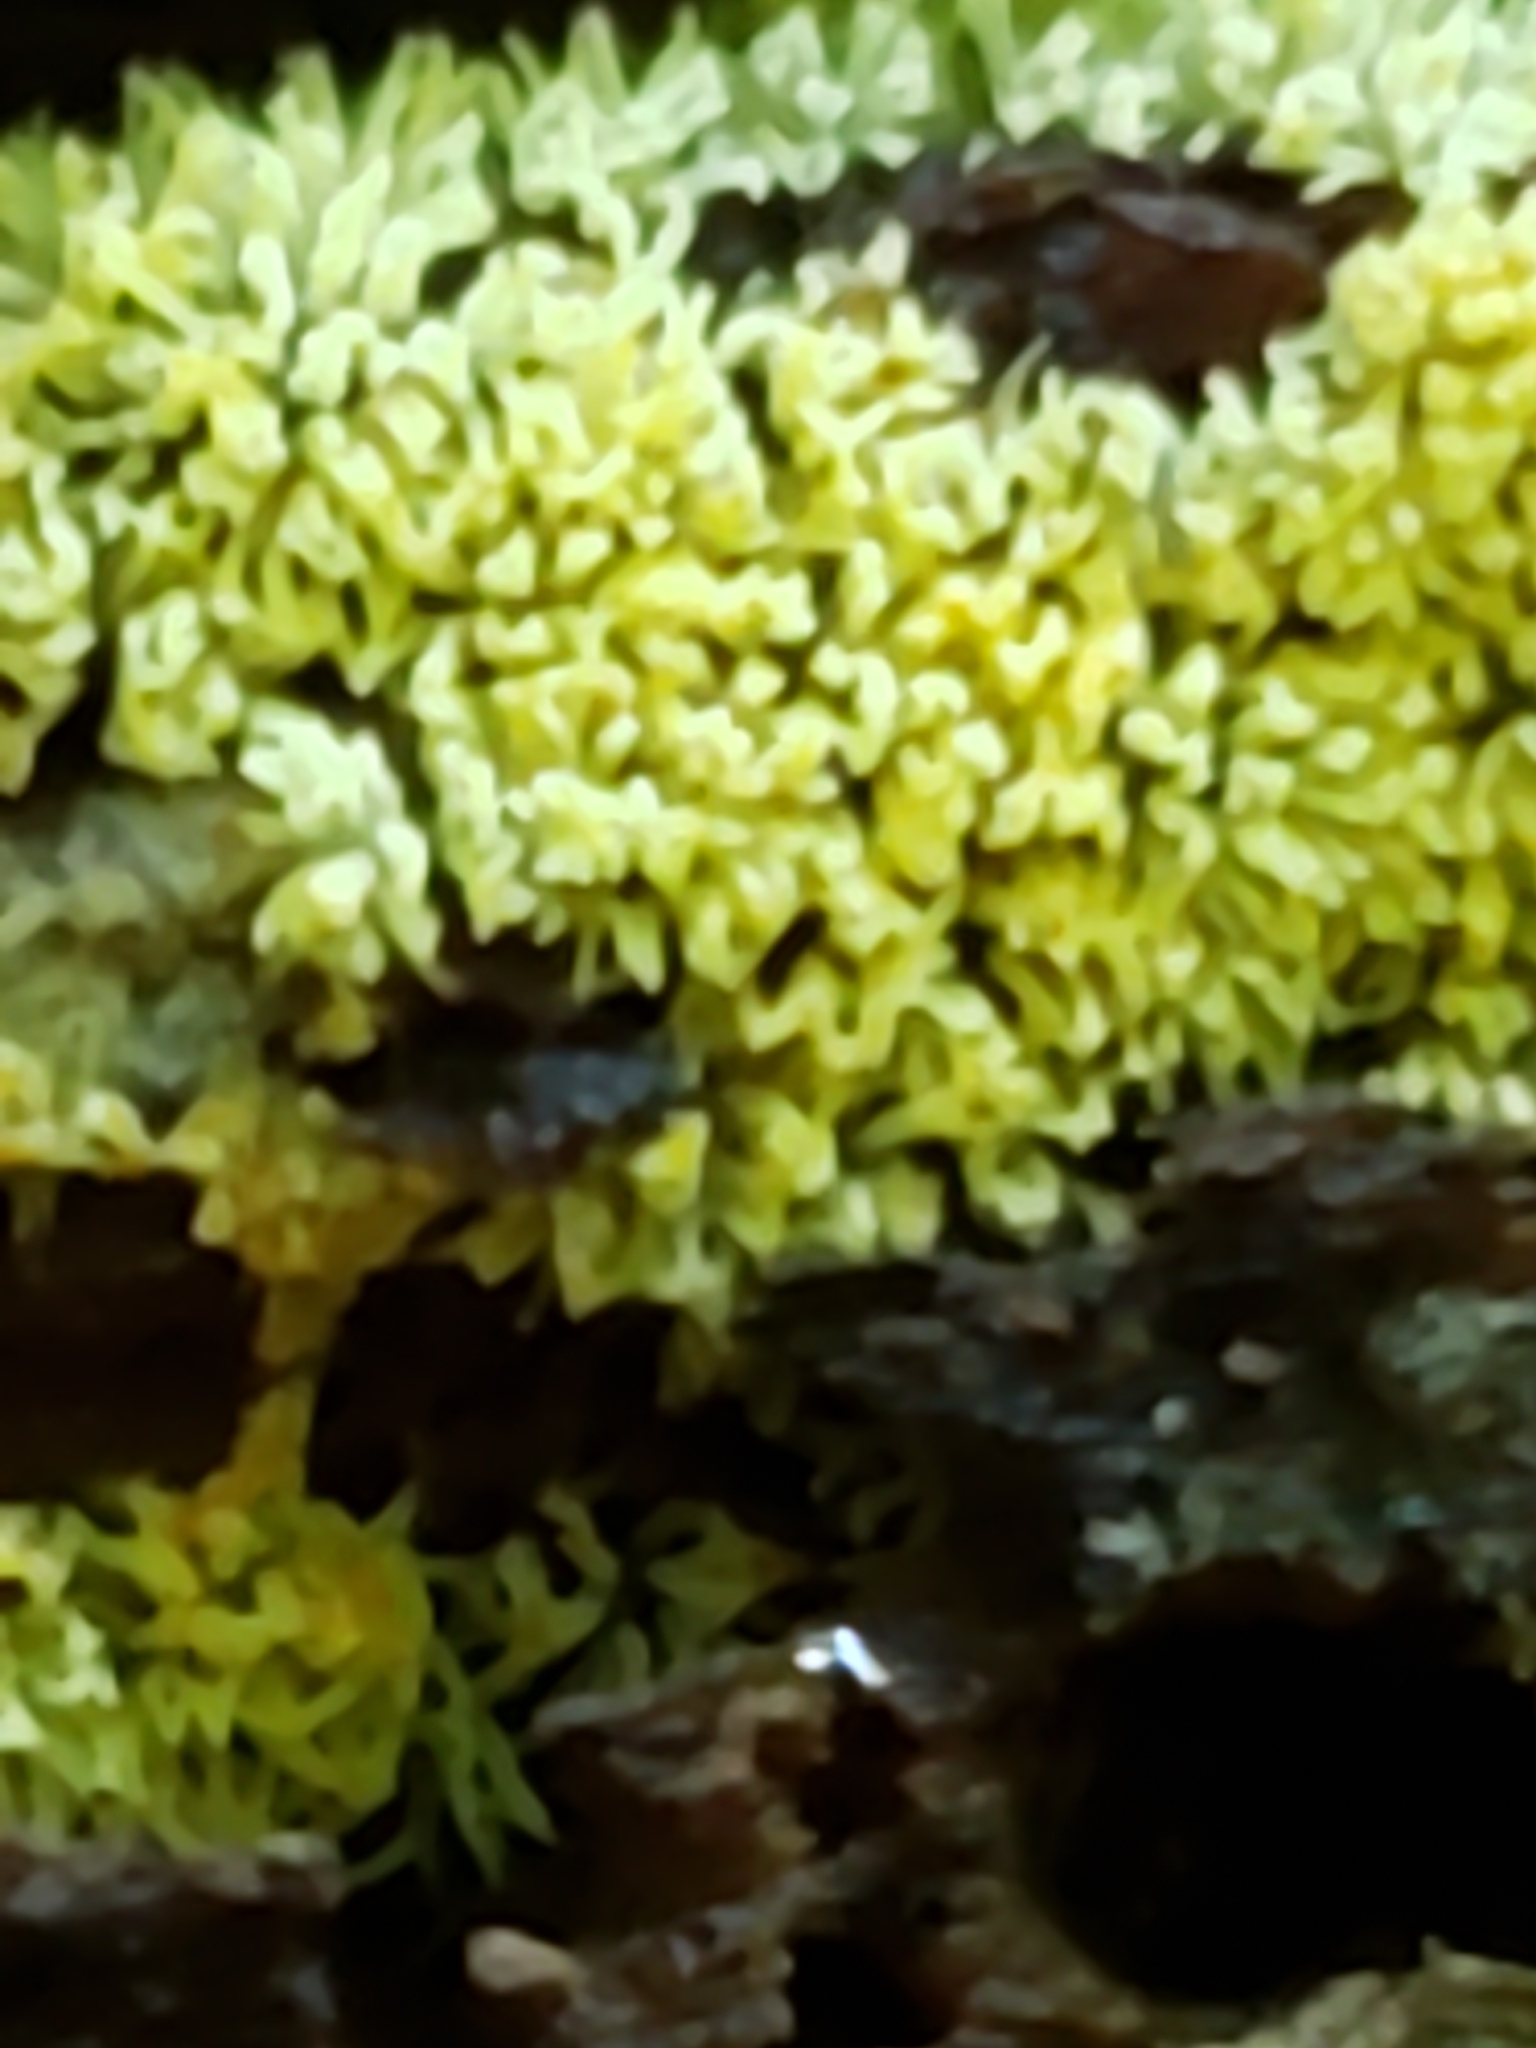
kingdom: Protozoa
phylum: Mycetozoa
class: Protosteliomycetes
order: Ceratiomyxales
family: Ceratiomyxaceae
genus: Ceratiomyxa
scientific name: Ceratiomyxa fruticulosa
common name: Honeycomb coral slime mold
